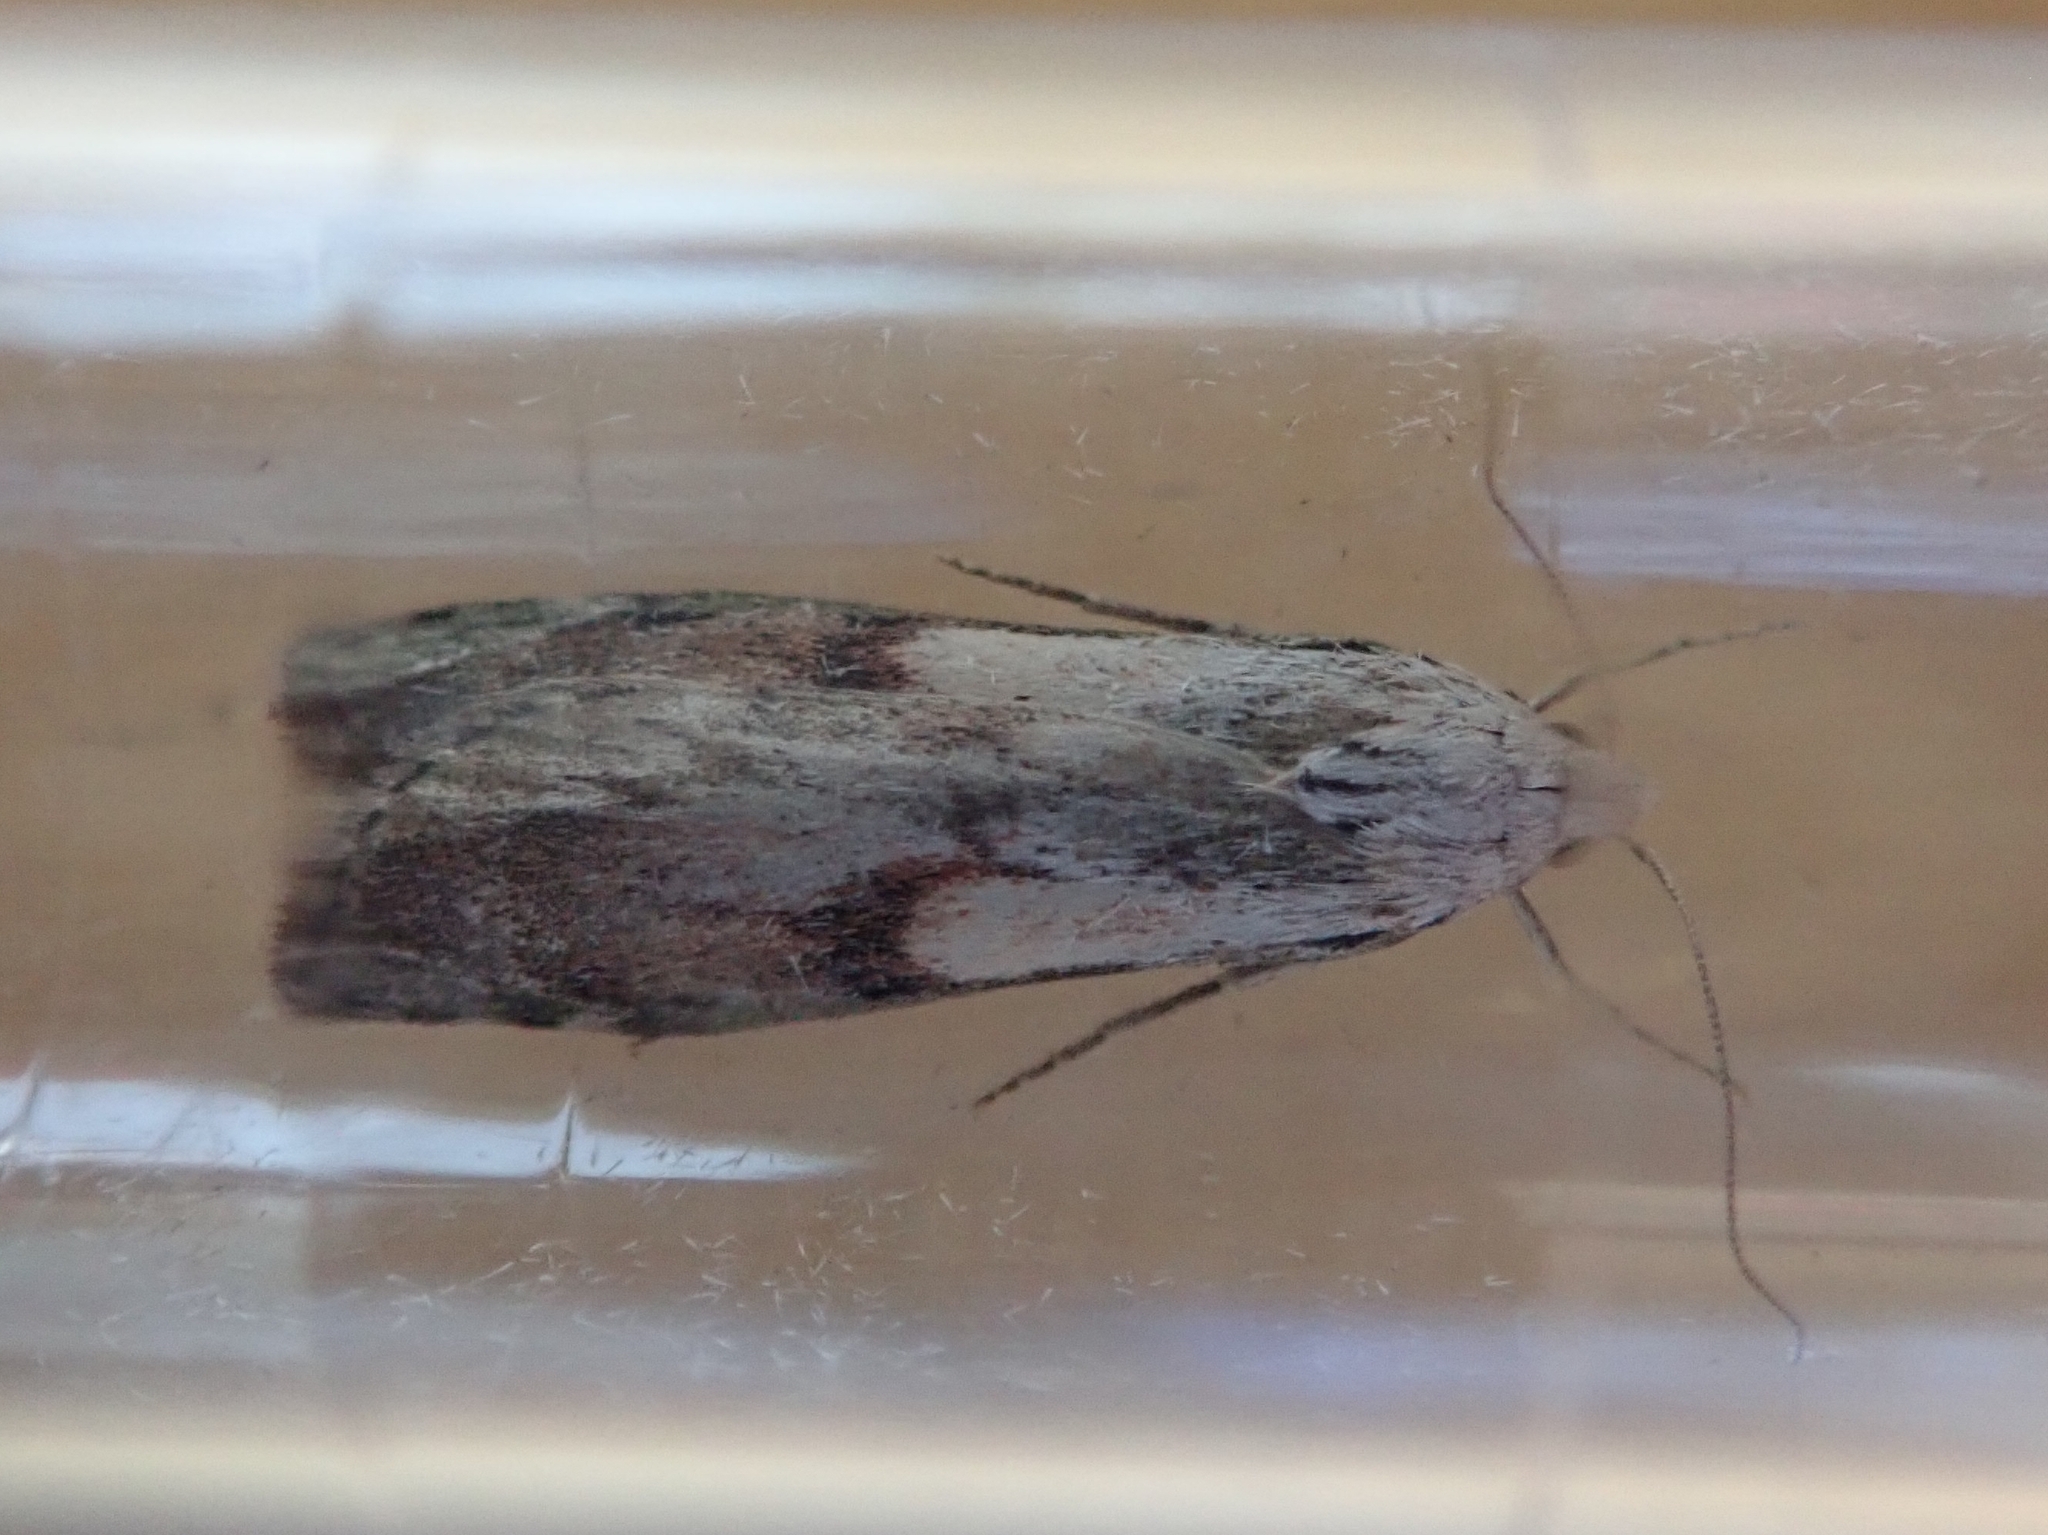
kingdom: Animalia
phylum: Arthropoda
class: Insecta
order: Lepidoptera
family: Pyralidae
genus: Aphomia
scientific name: Aphomia sociella
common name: Bee moth
